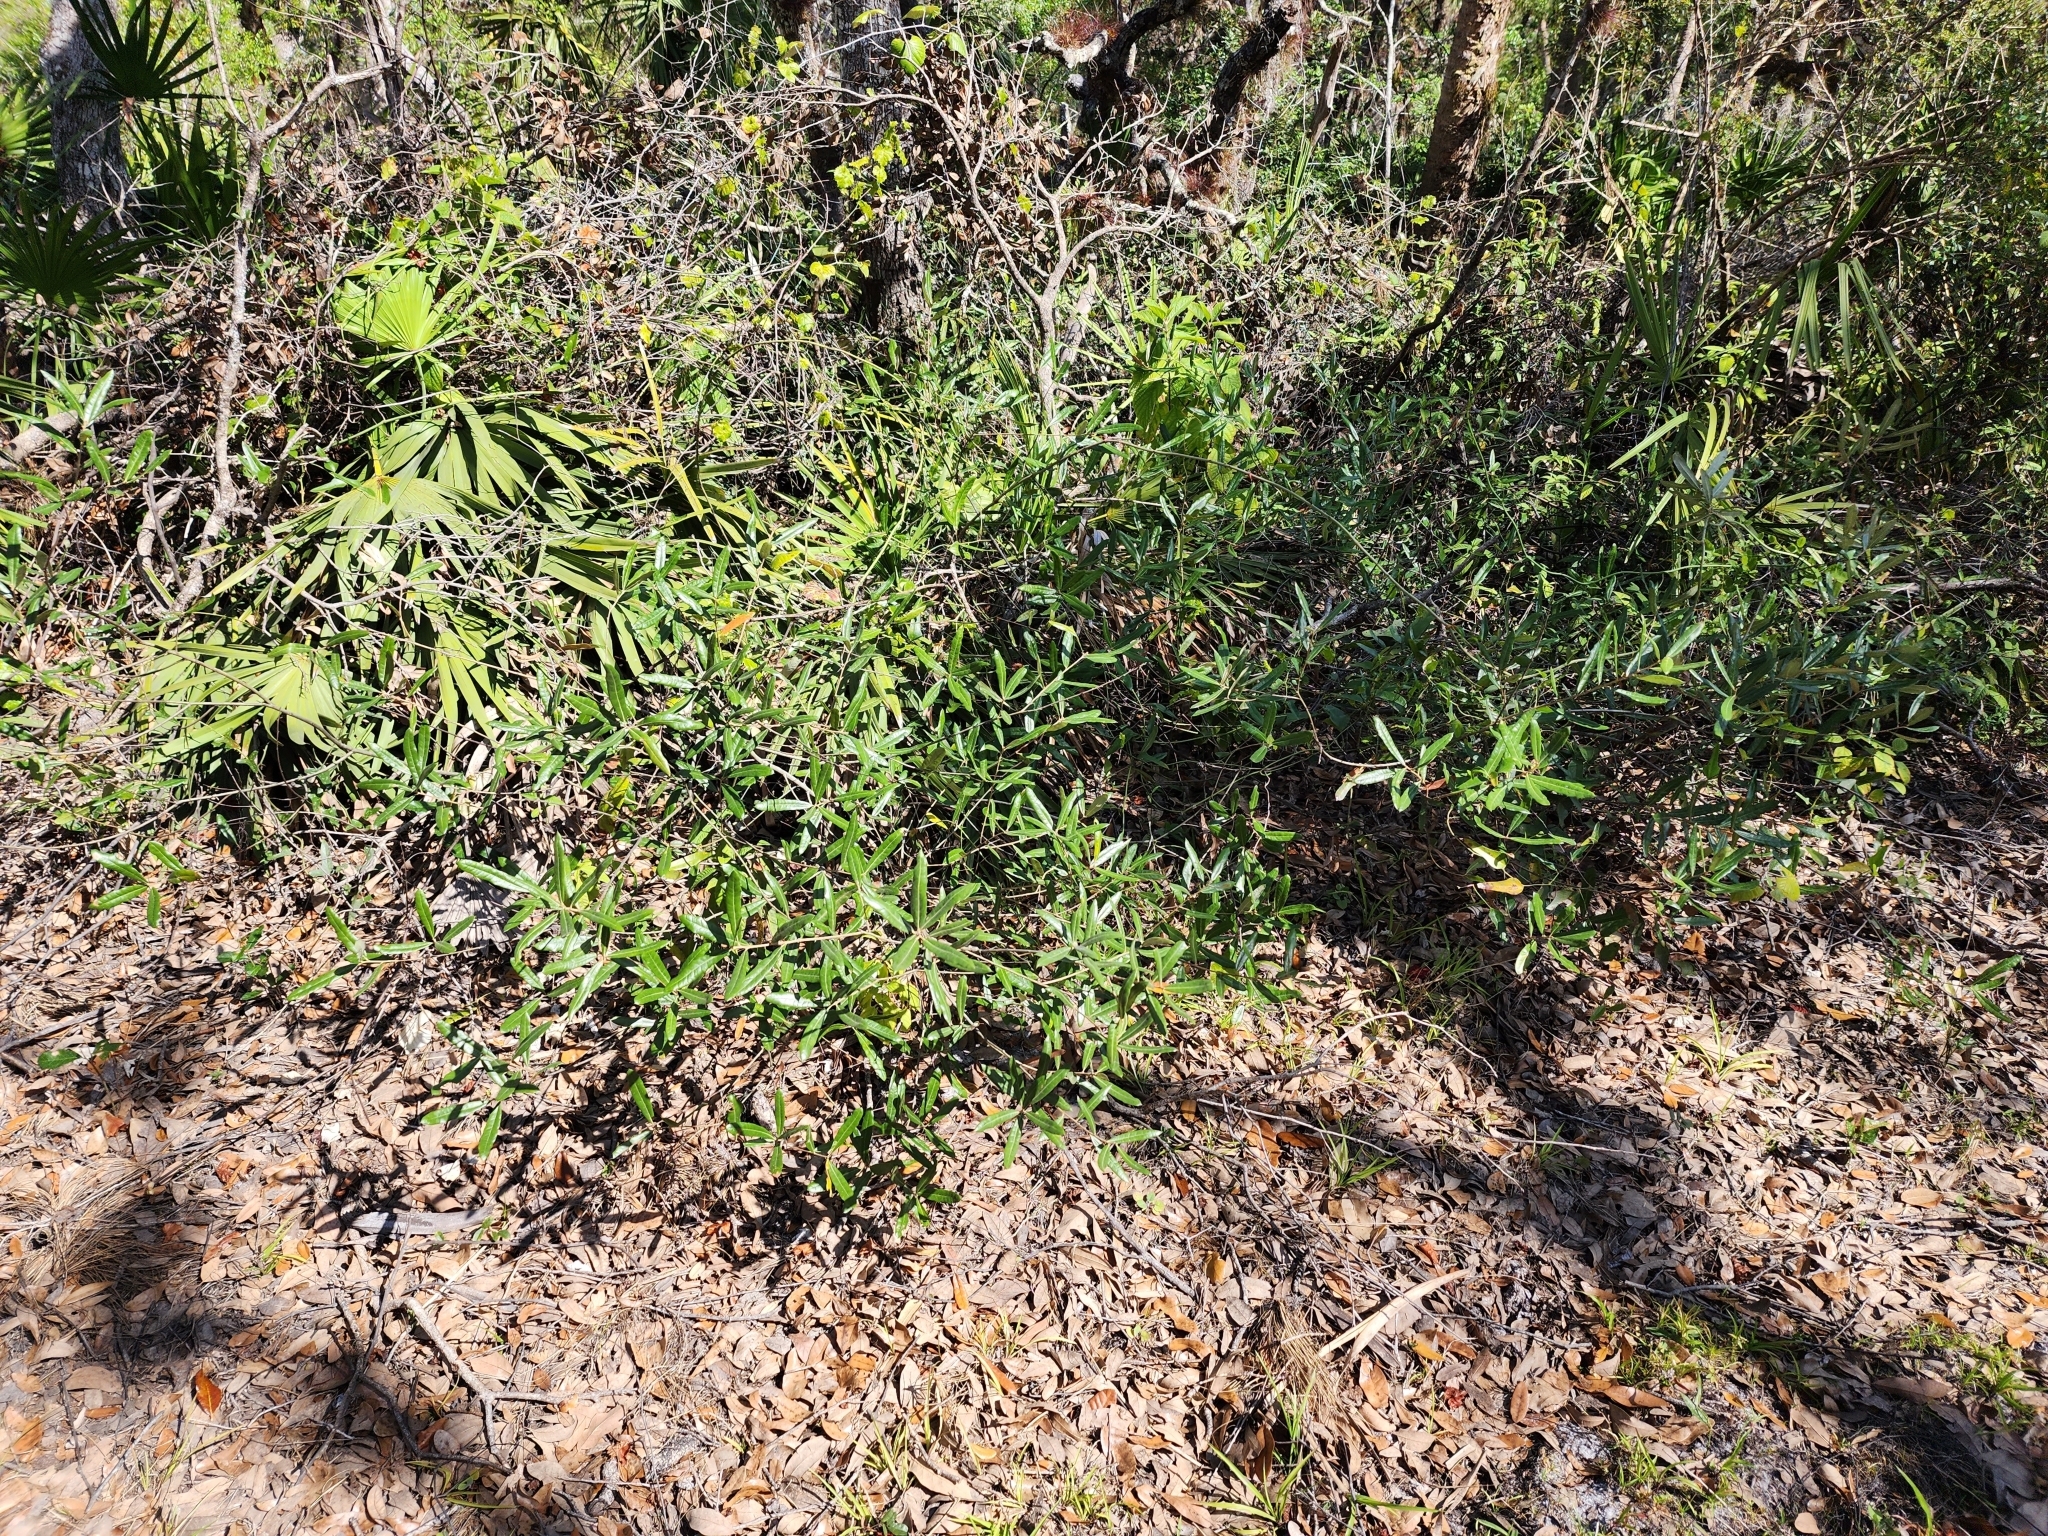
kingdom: Plantae
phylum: Tracheophyta
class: Magnoliopsida
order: Fagales
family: Fagaceae
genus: Quercus
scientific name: Quercus pumila
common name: Runner oak
